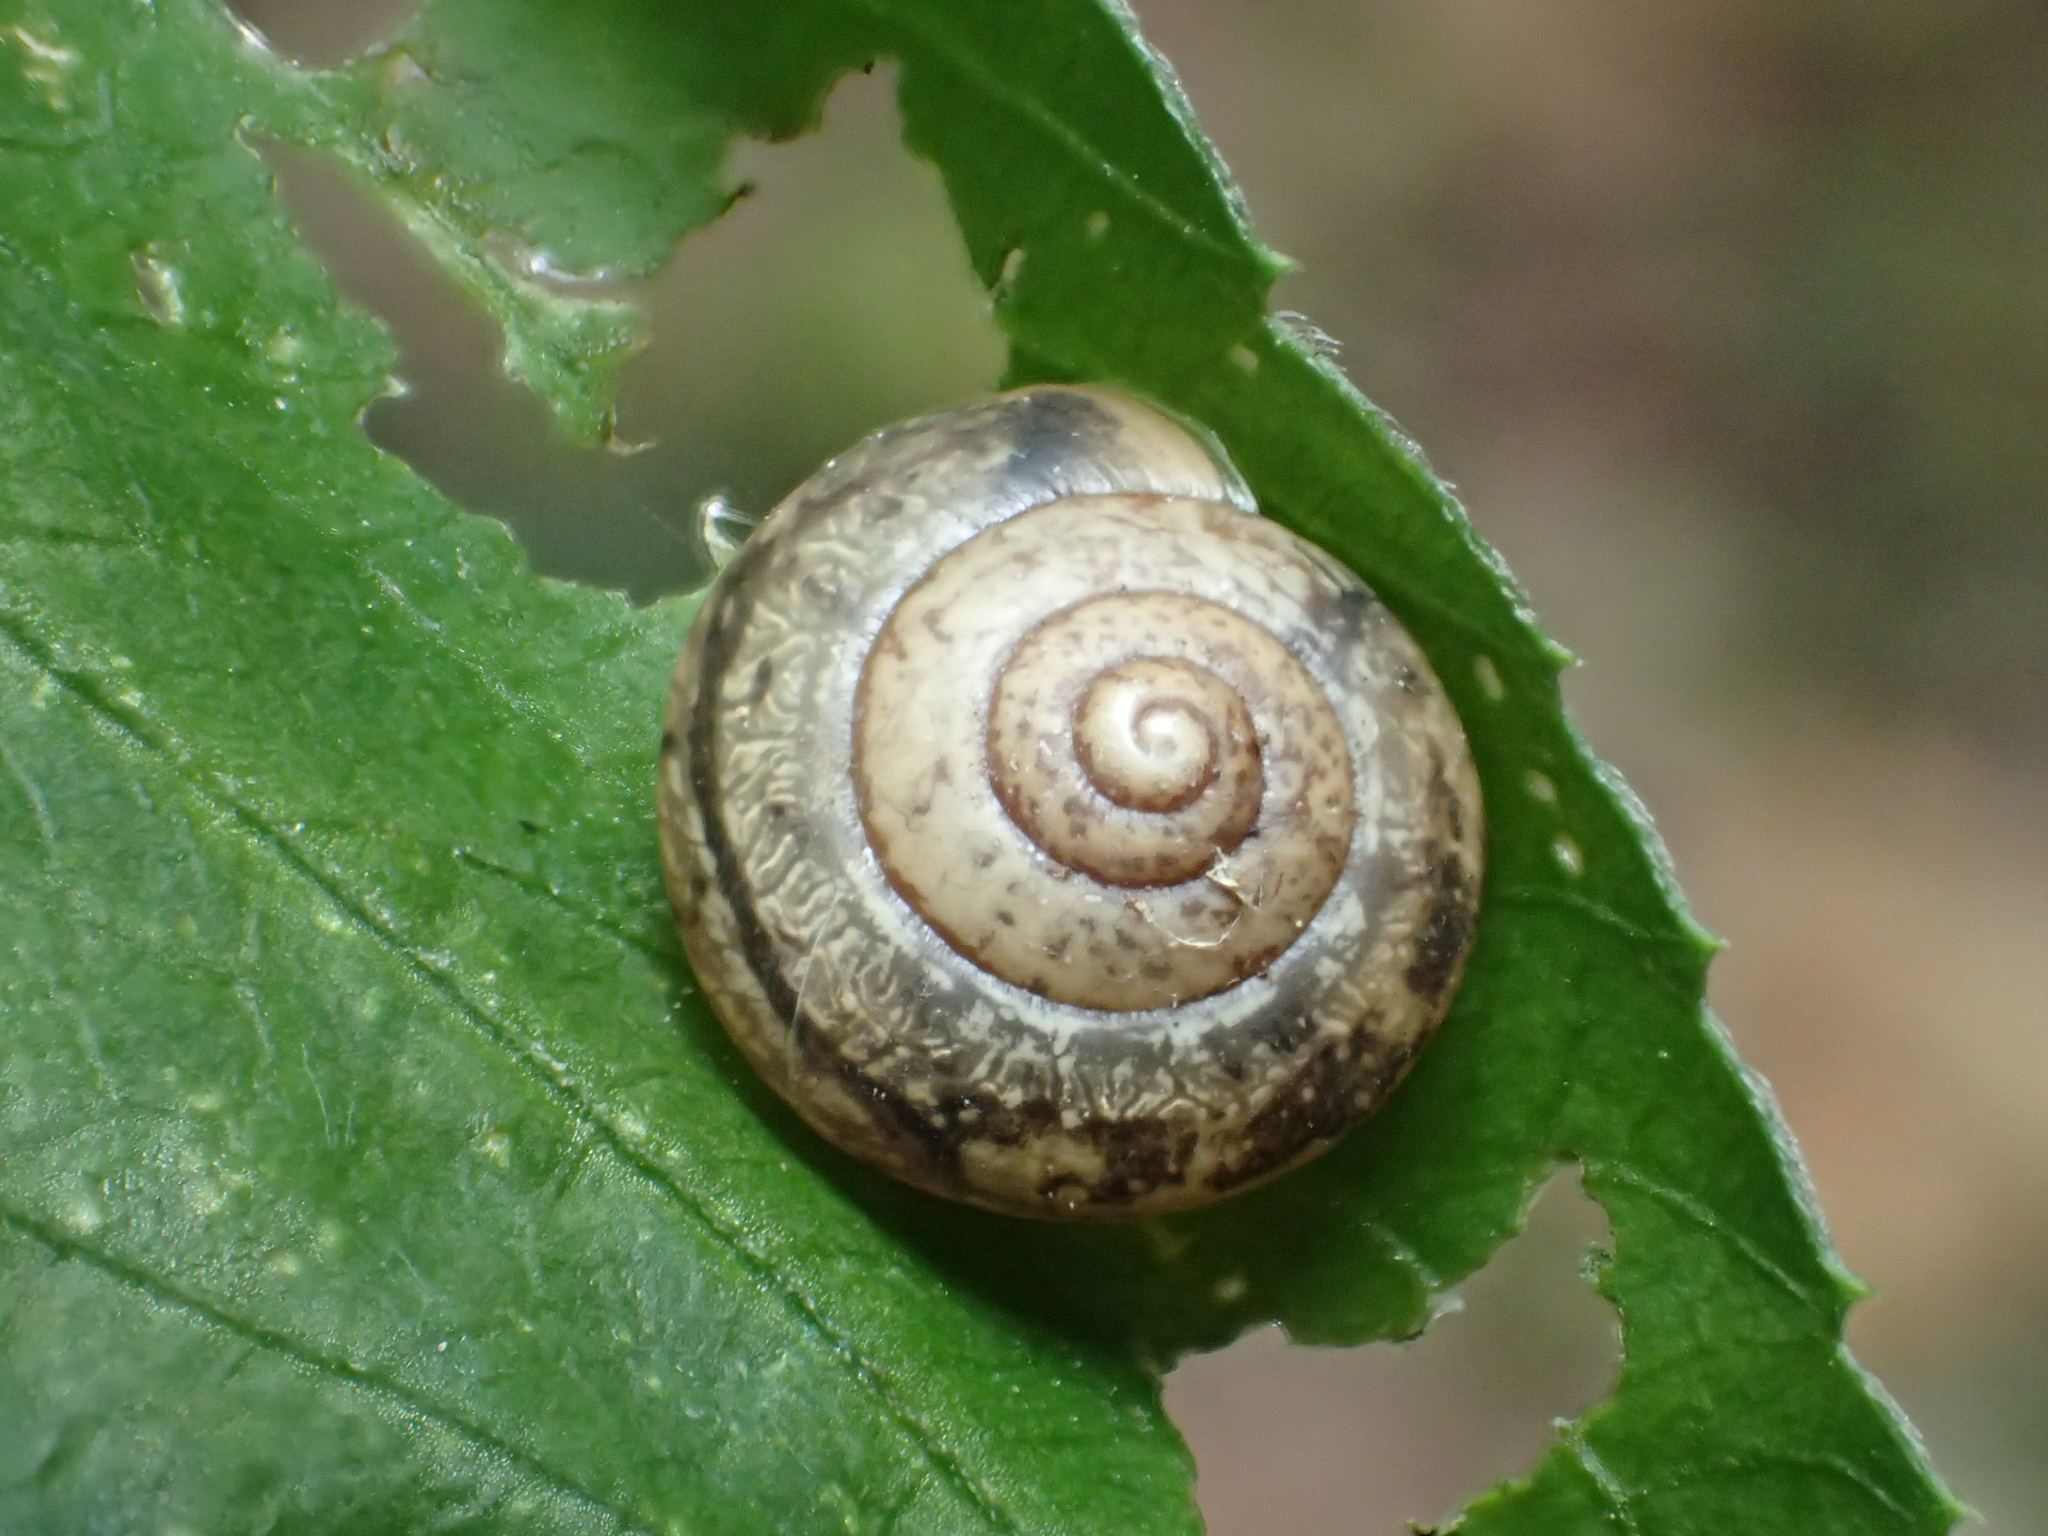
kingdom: Animalia
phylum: Mollusca
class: Gastropoda
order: Stylommatophora
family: Camaenidae
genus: Bradybaena
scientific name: Bradybaena similaris
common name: Asian trampsnail
